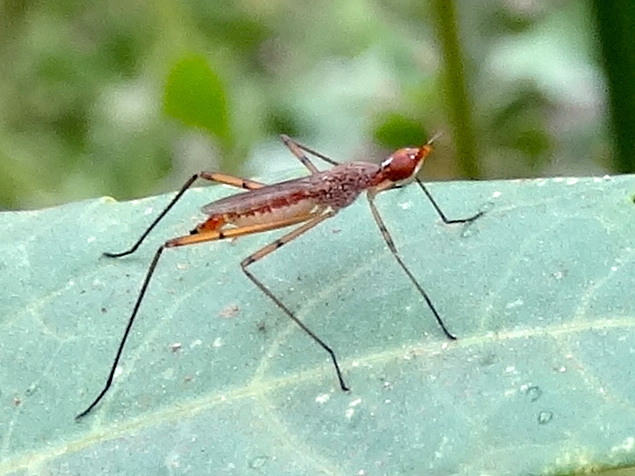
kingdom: Animalia
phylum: Arthropoda
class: Insecta
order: Diptera
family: Micropezidae
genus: Micropeza
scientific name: Micropeza
